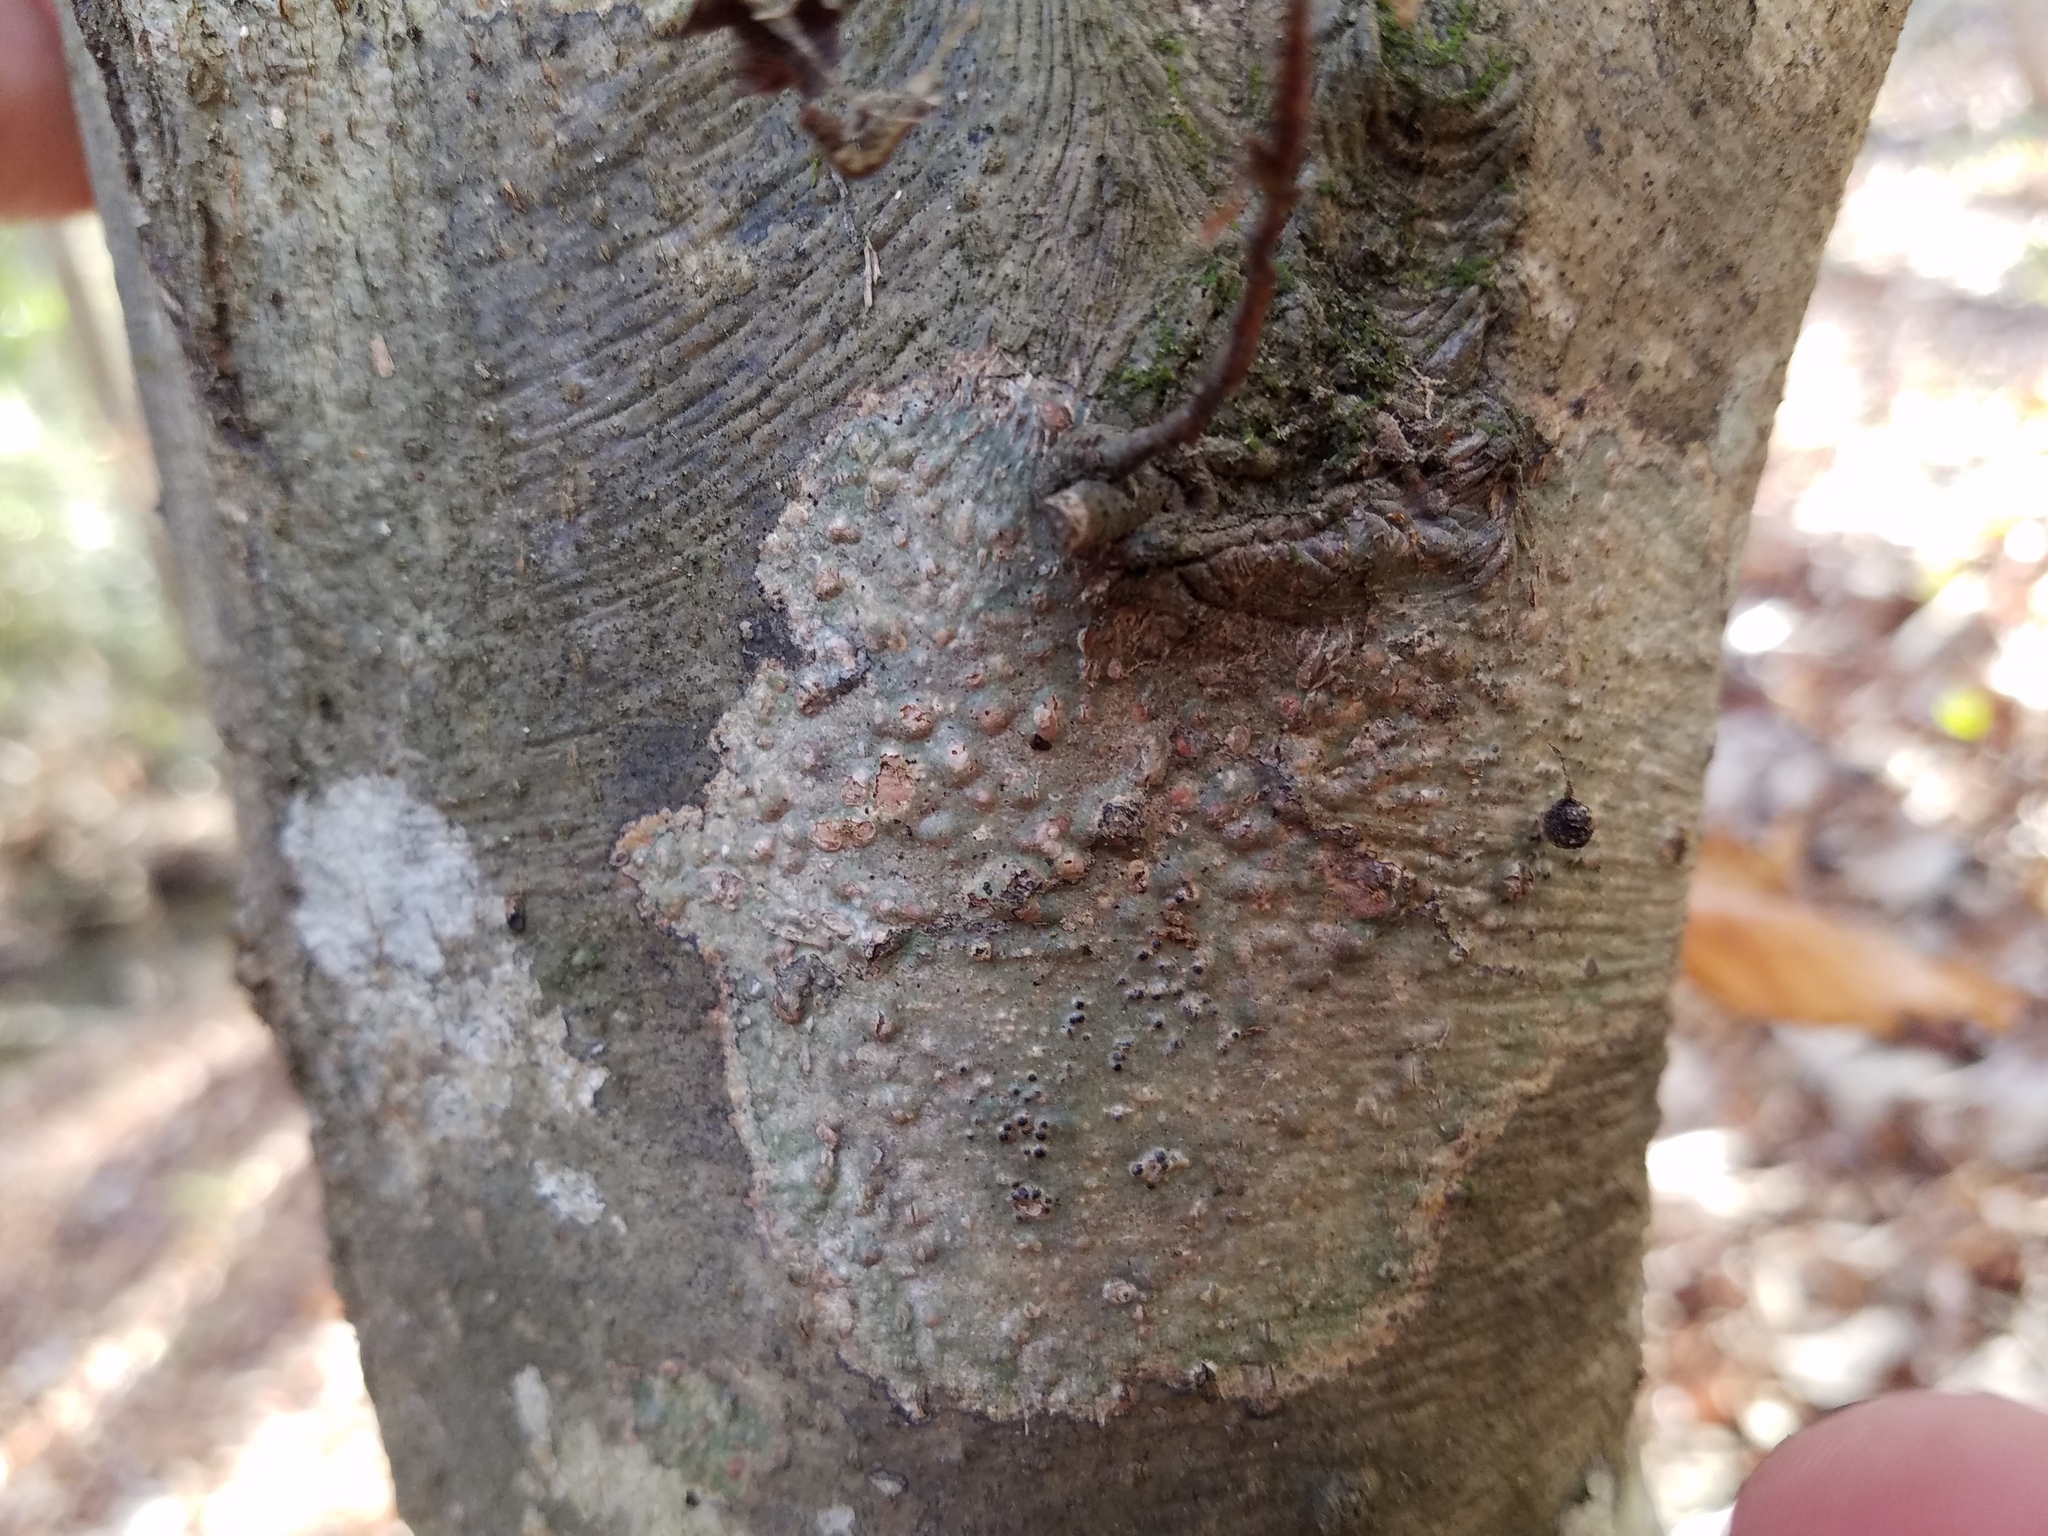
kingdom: Fungi
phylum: Ascomycota
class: Eurotiomycetes
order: Pyrenulales
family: Pyrenulaceae
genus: Pyrenula
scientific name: Pyrenula punctella
